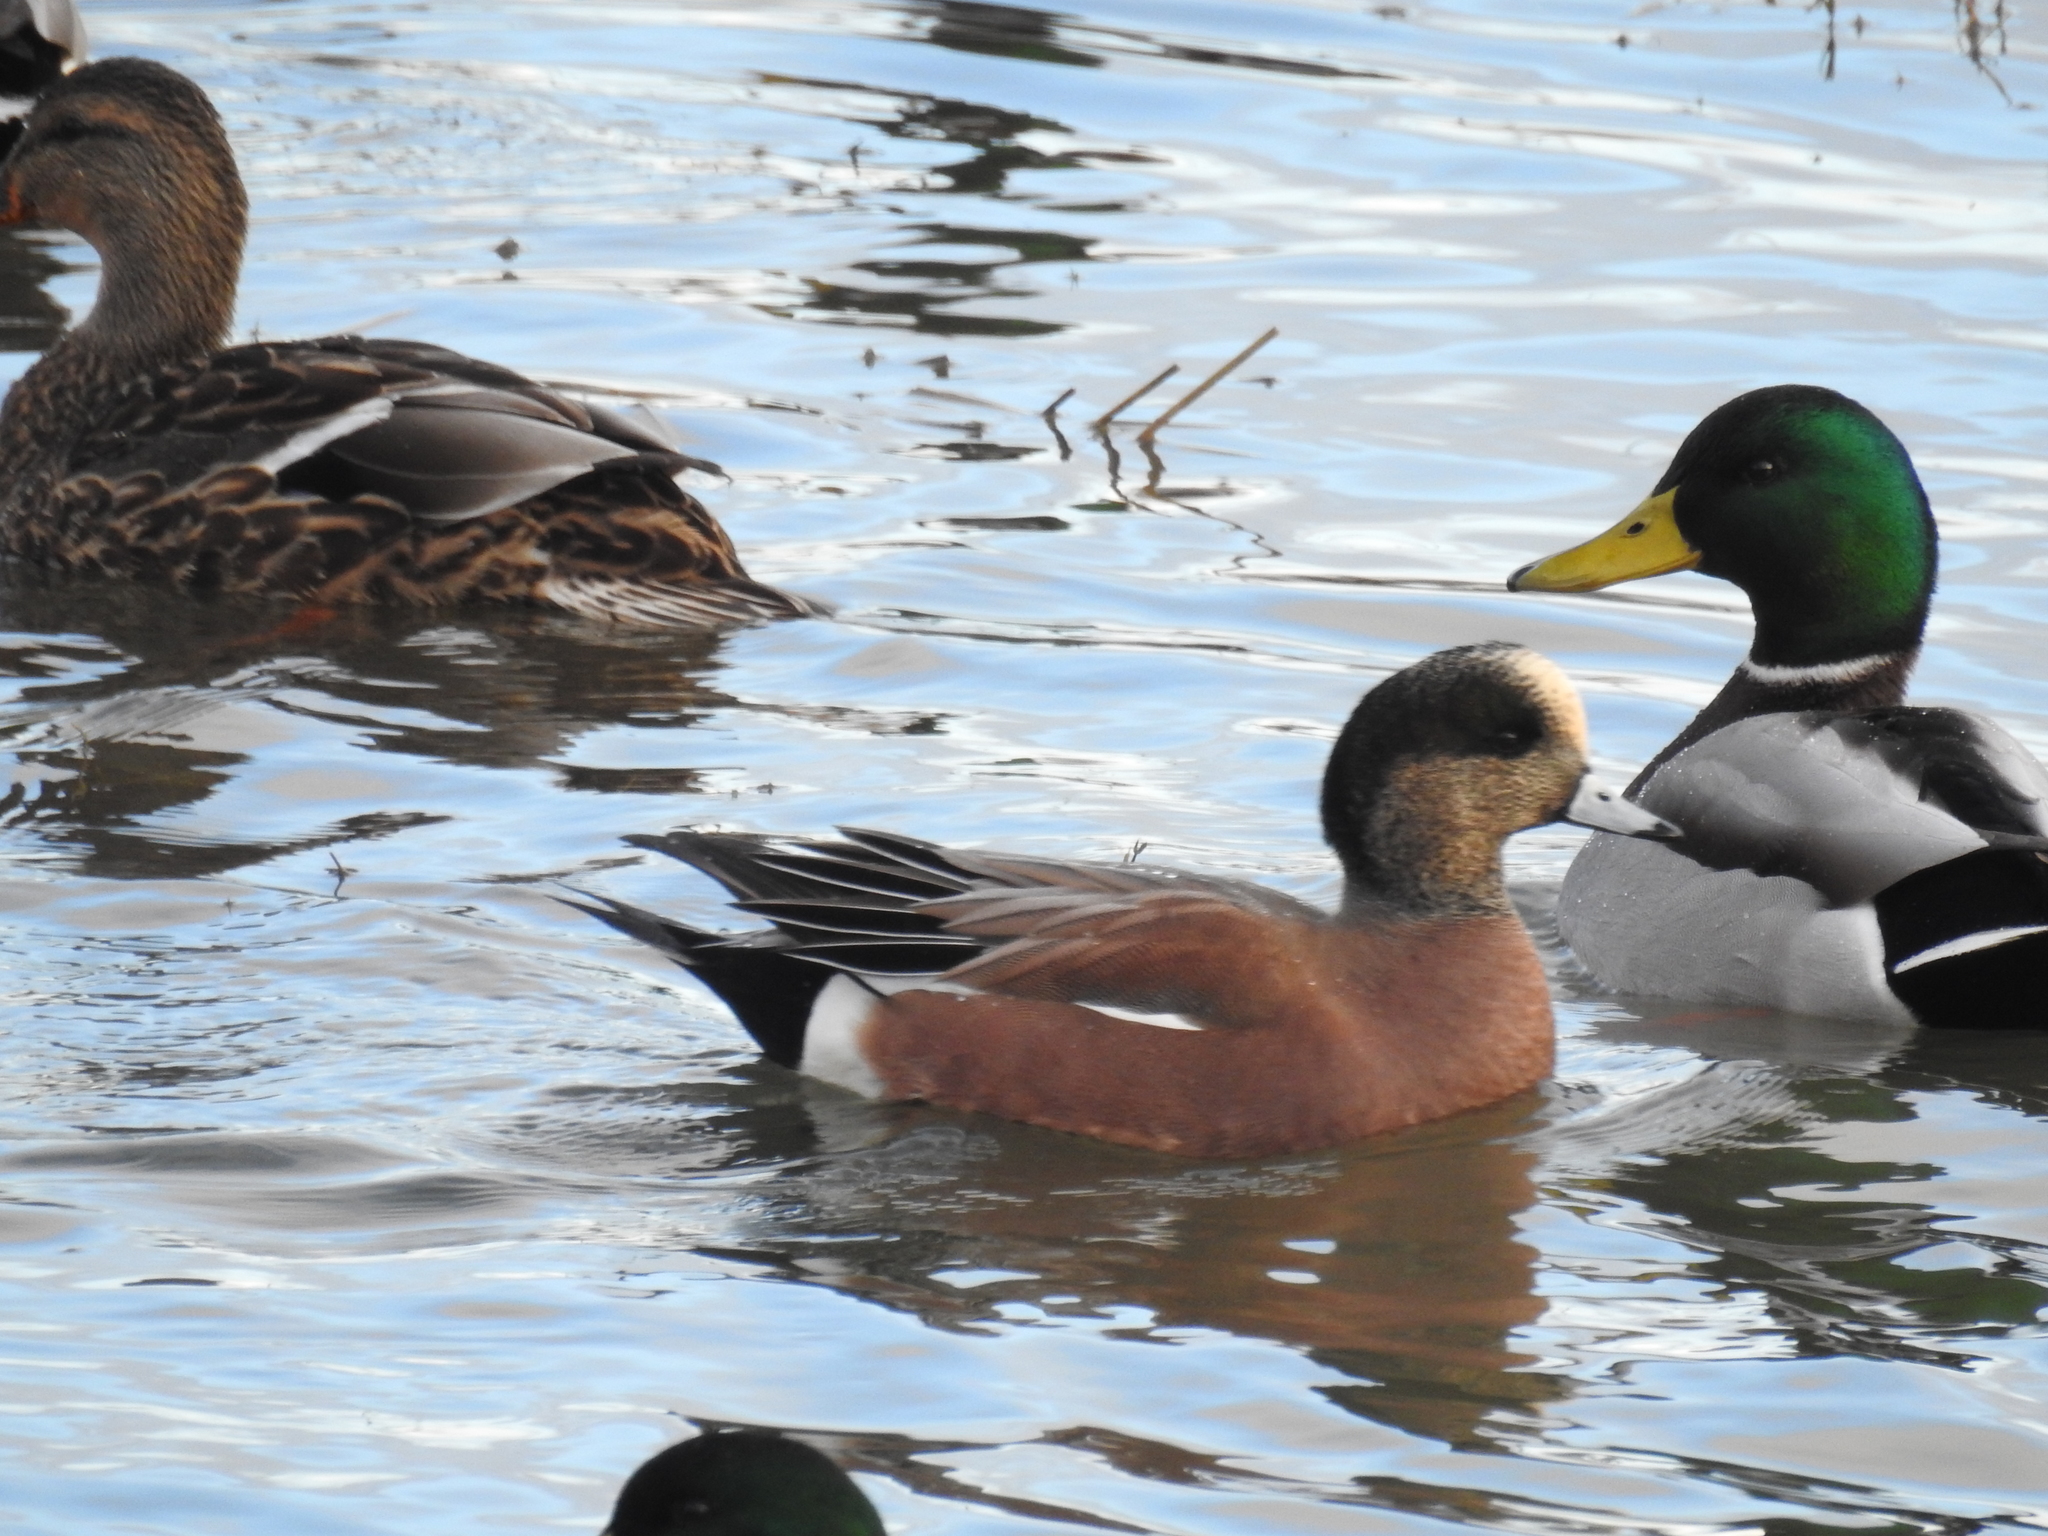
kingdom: Animalia
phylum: Chordata
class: Aves
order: Anseriformes
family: Anatidae
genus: Mareca
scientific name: Mareca americana
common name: American wigeon
